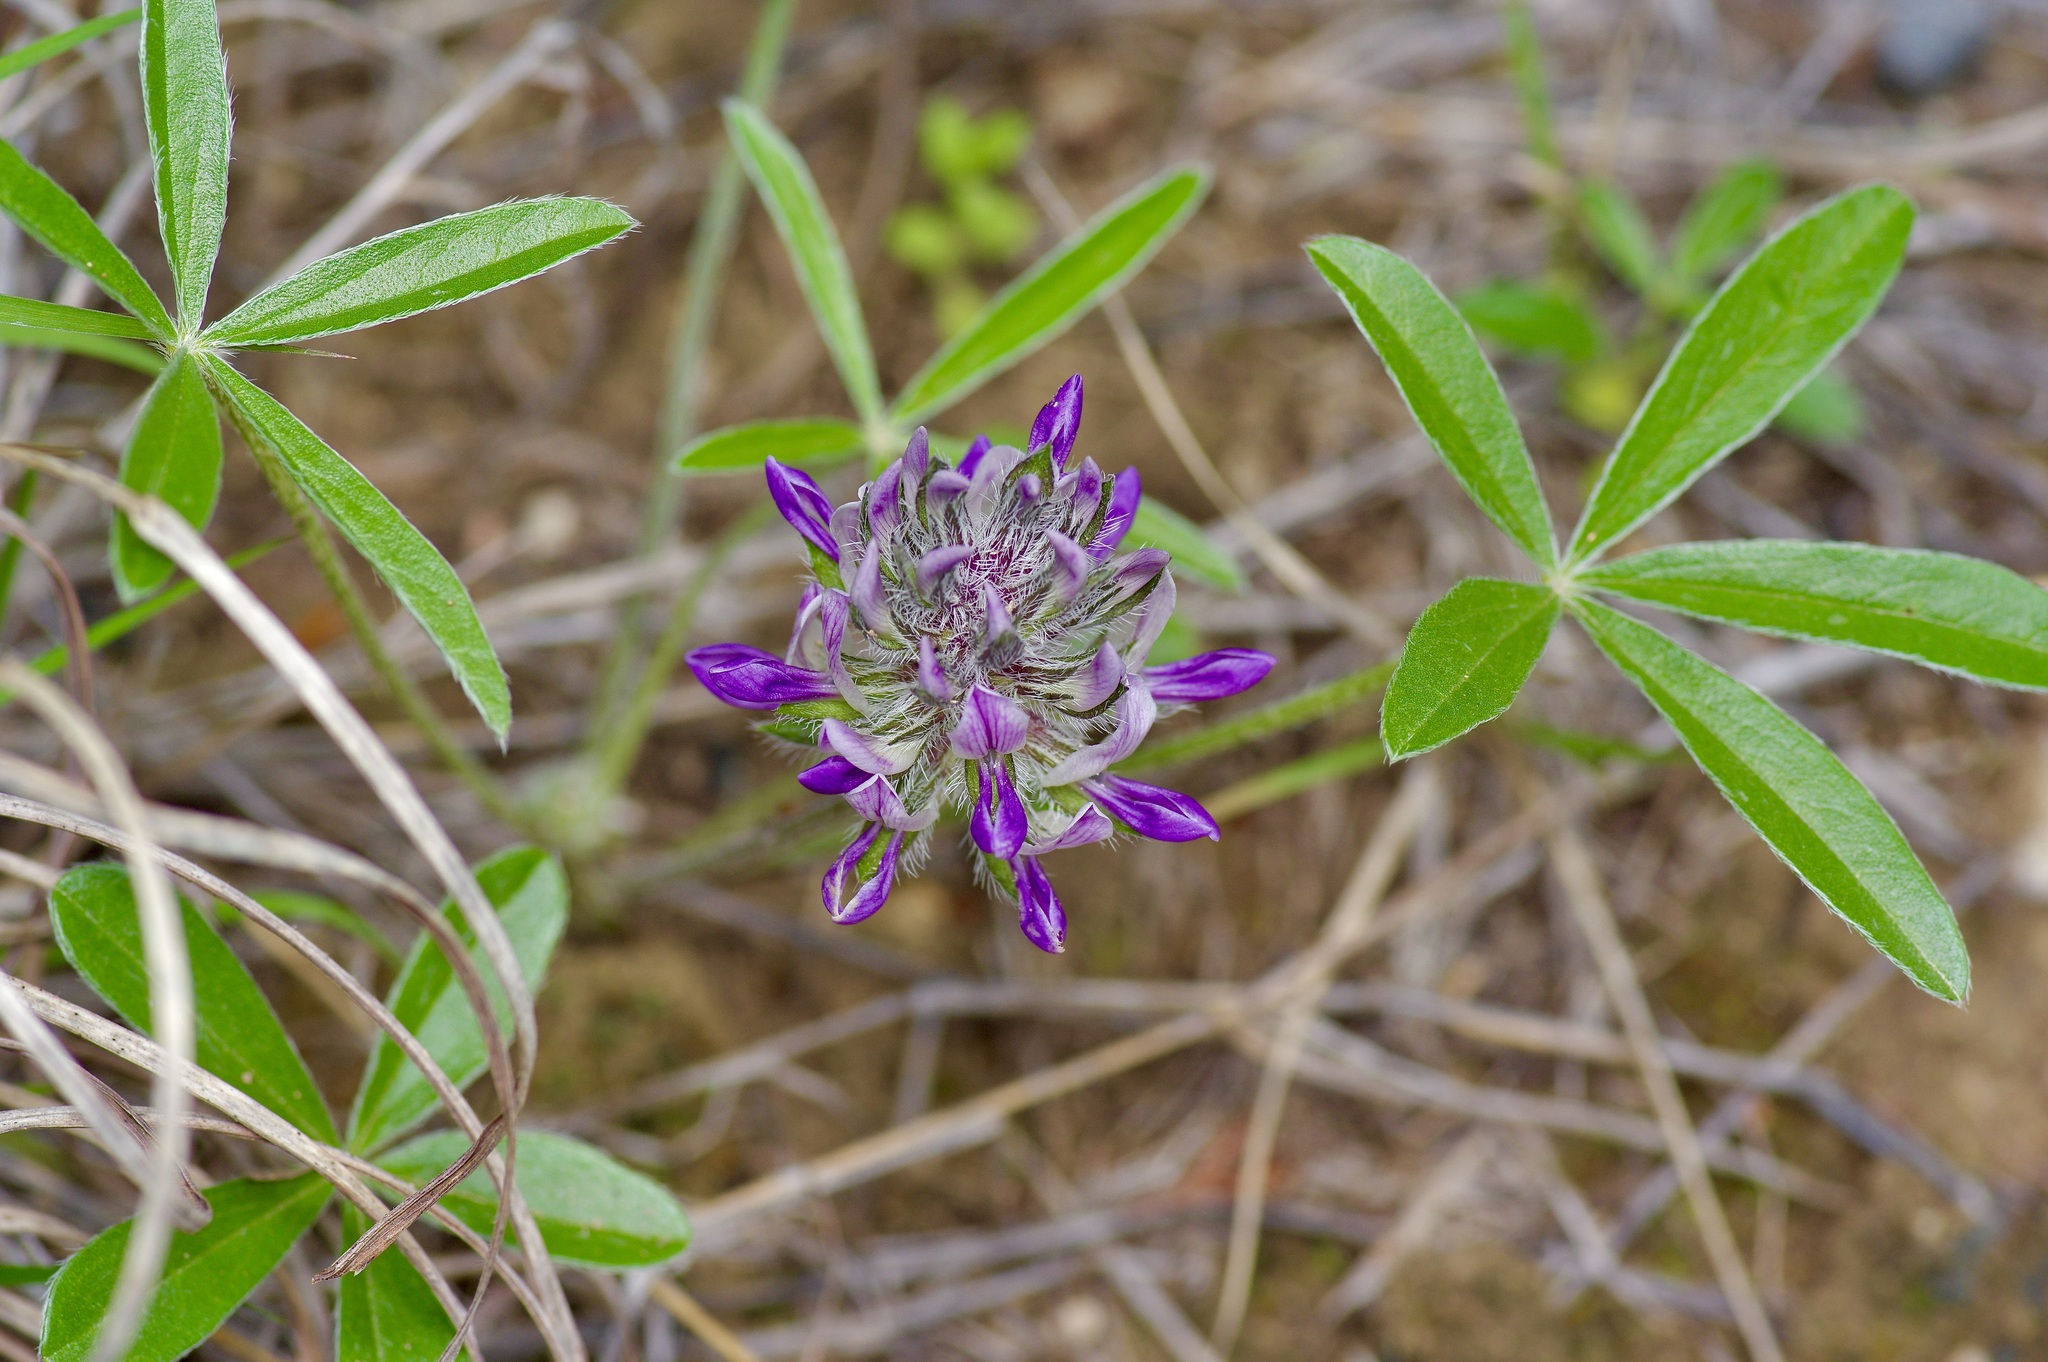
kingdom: Plantae
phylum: Tracheophyta
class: Magnoliopsida
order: Fabales
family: Fabaceae
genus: Pediomelum
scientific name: Pediomelum hypogaeum
